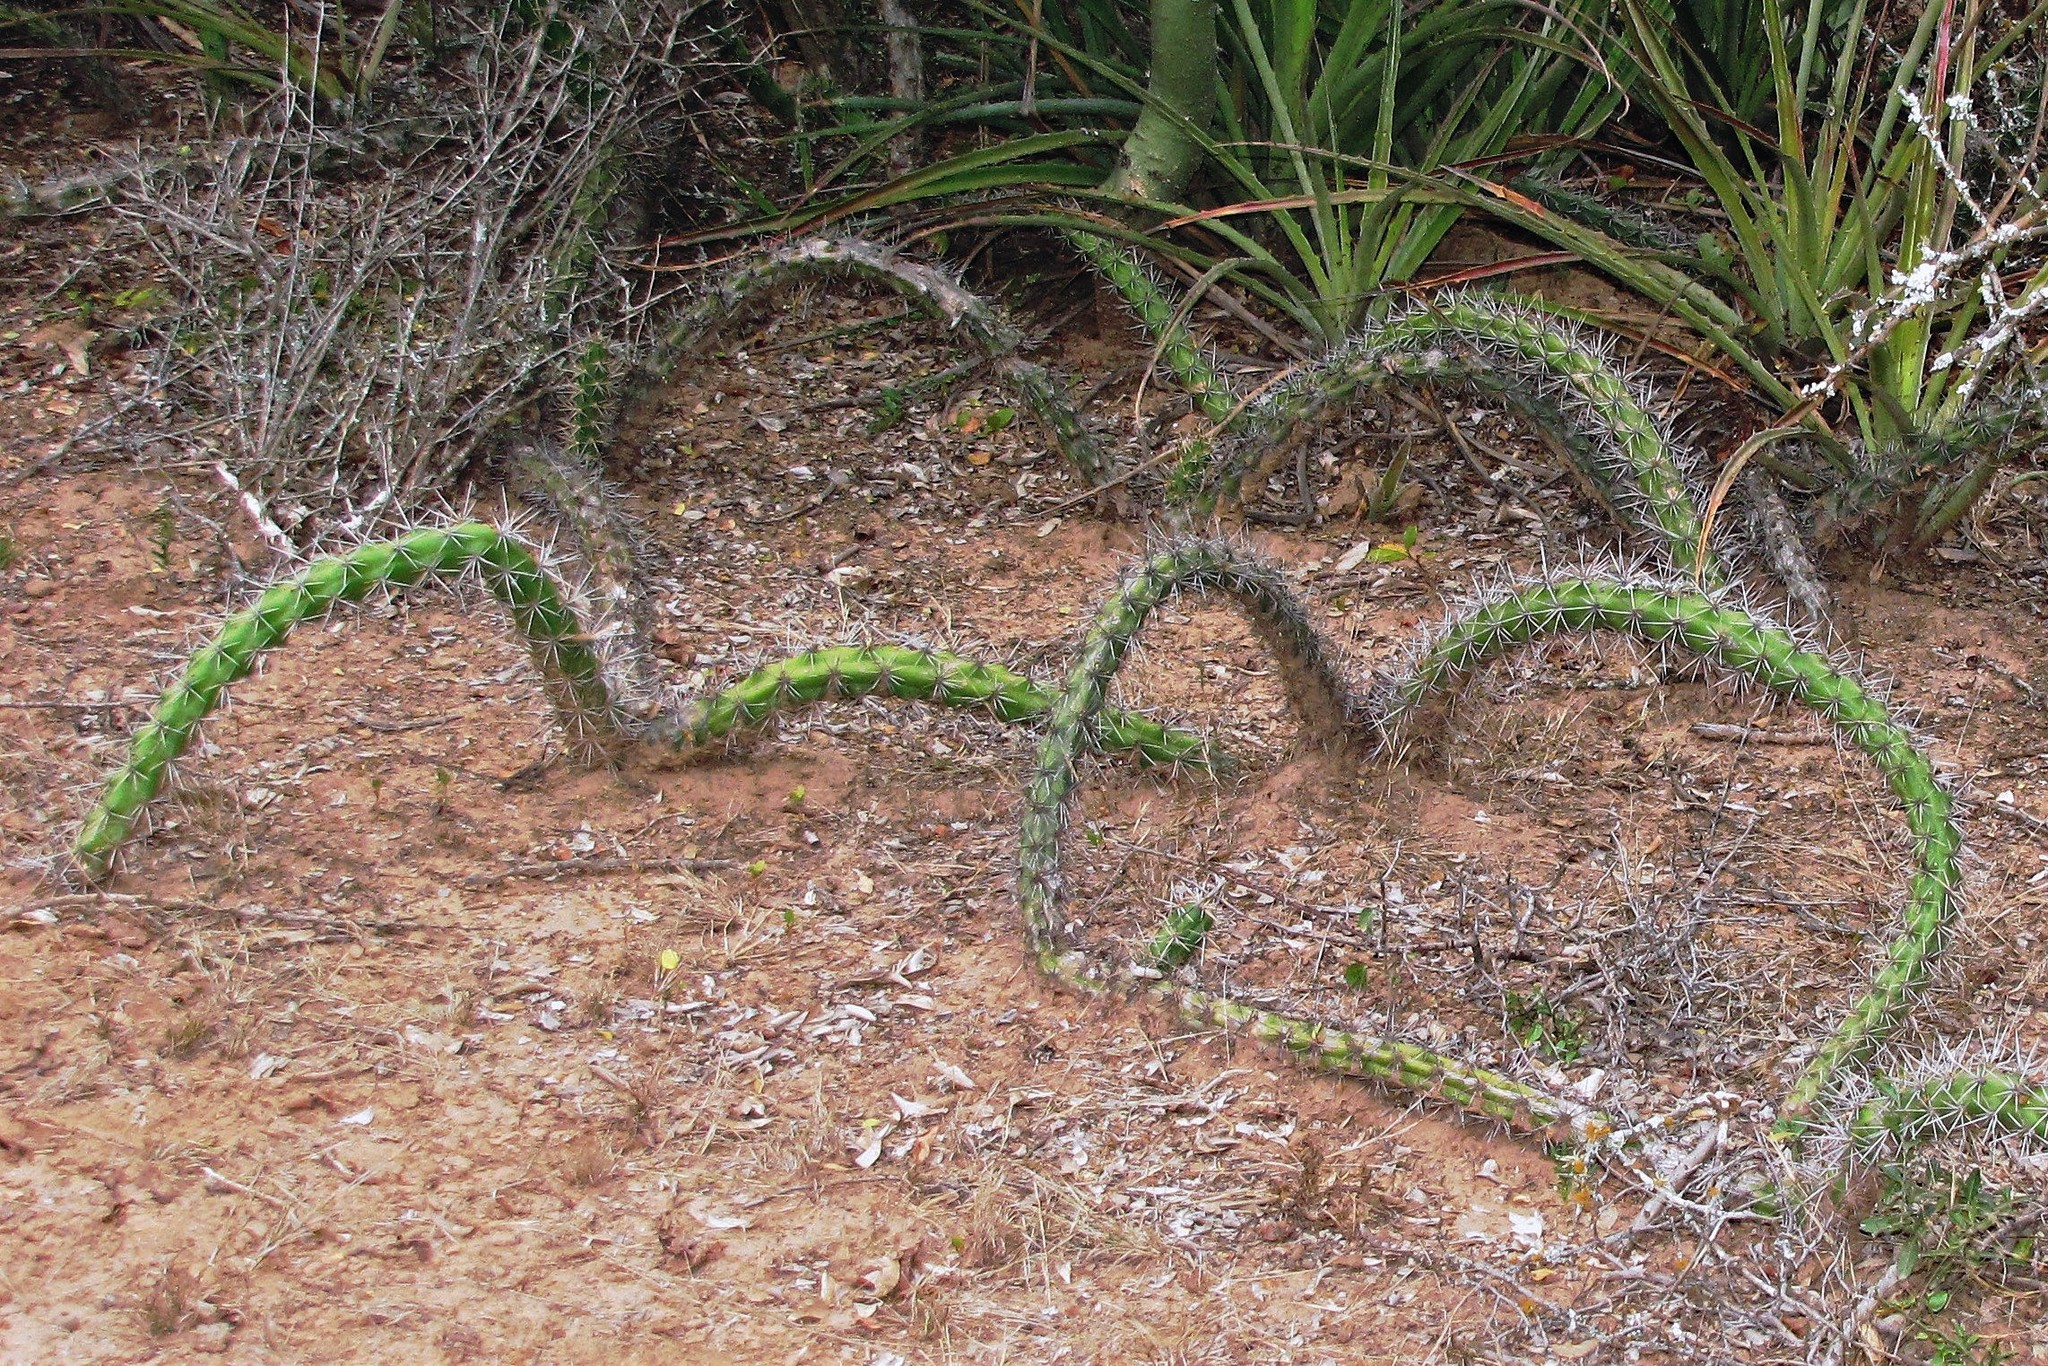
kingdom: Plantae
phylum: Tracheophyta
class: Magnoliopsida
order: Caryophyllales
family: Cactaceae
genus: Harrisia
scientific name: Harrisia pomanensis
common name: Midnight-lady
